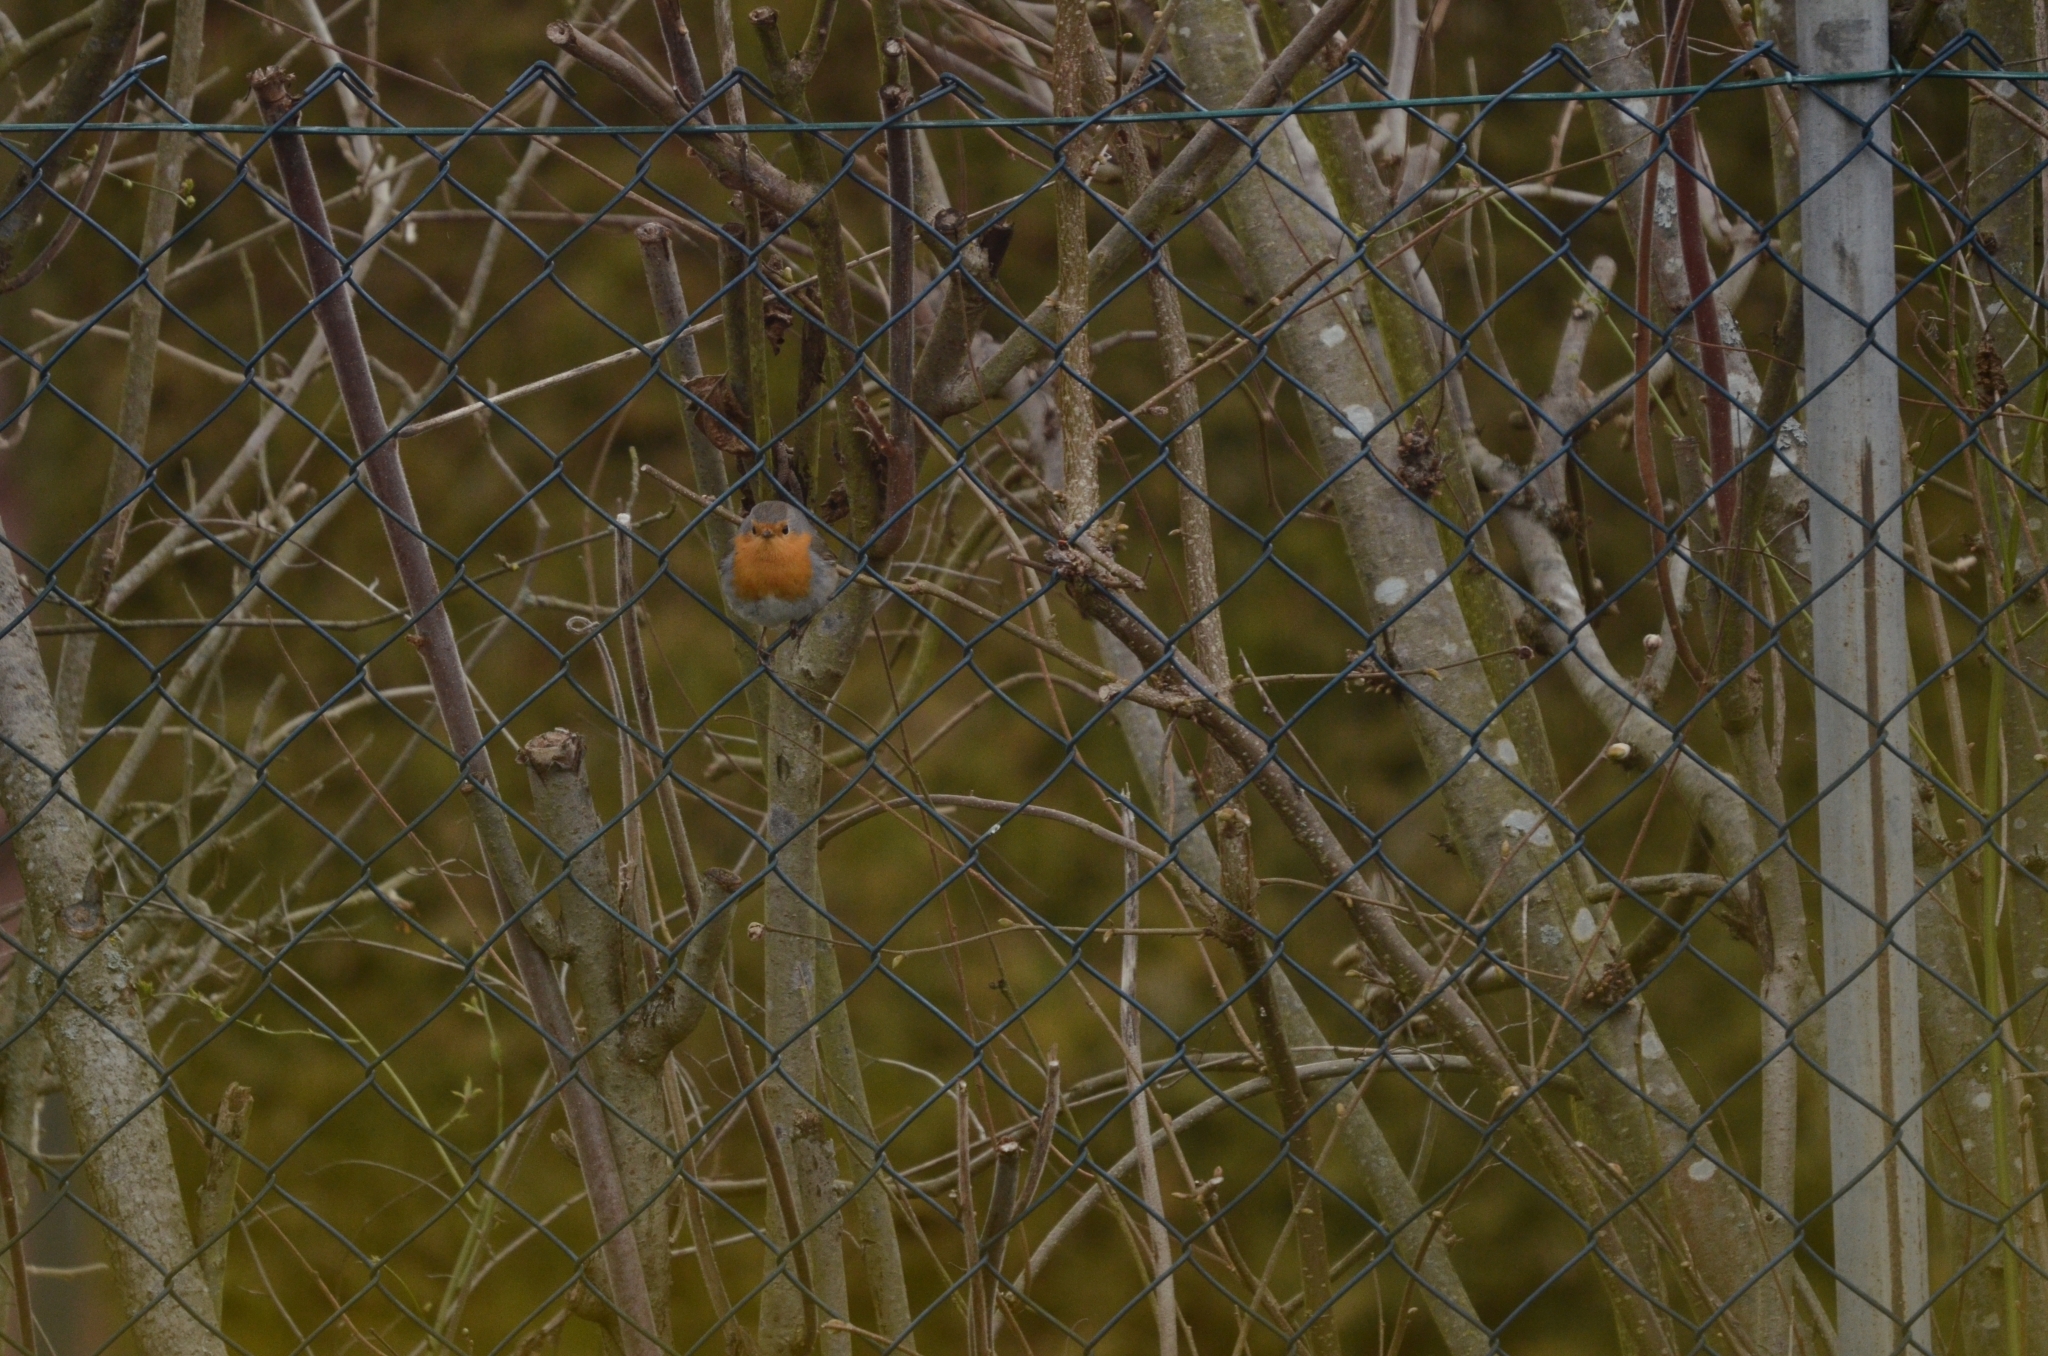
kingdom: Animalia
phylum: Chordata
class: Aves
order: Passeriformes
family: Muscicapidae
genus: Erithacus
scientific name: Erithacus rubecula
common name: European robin
